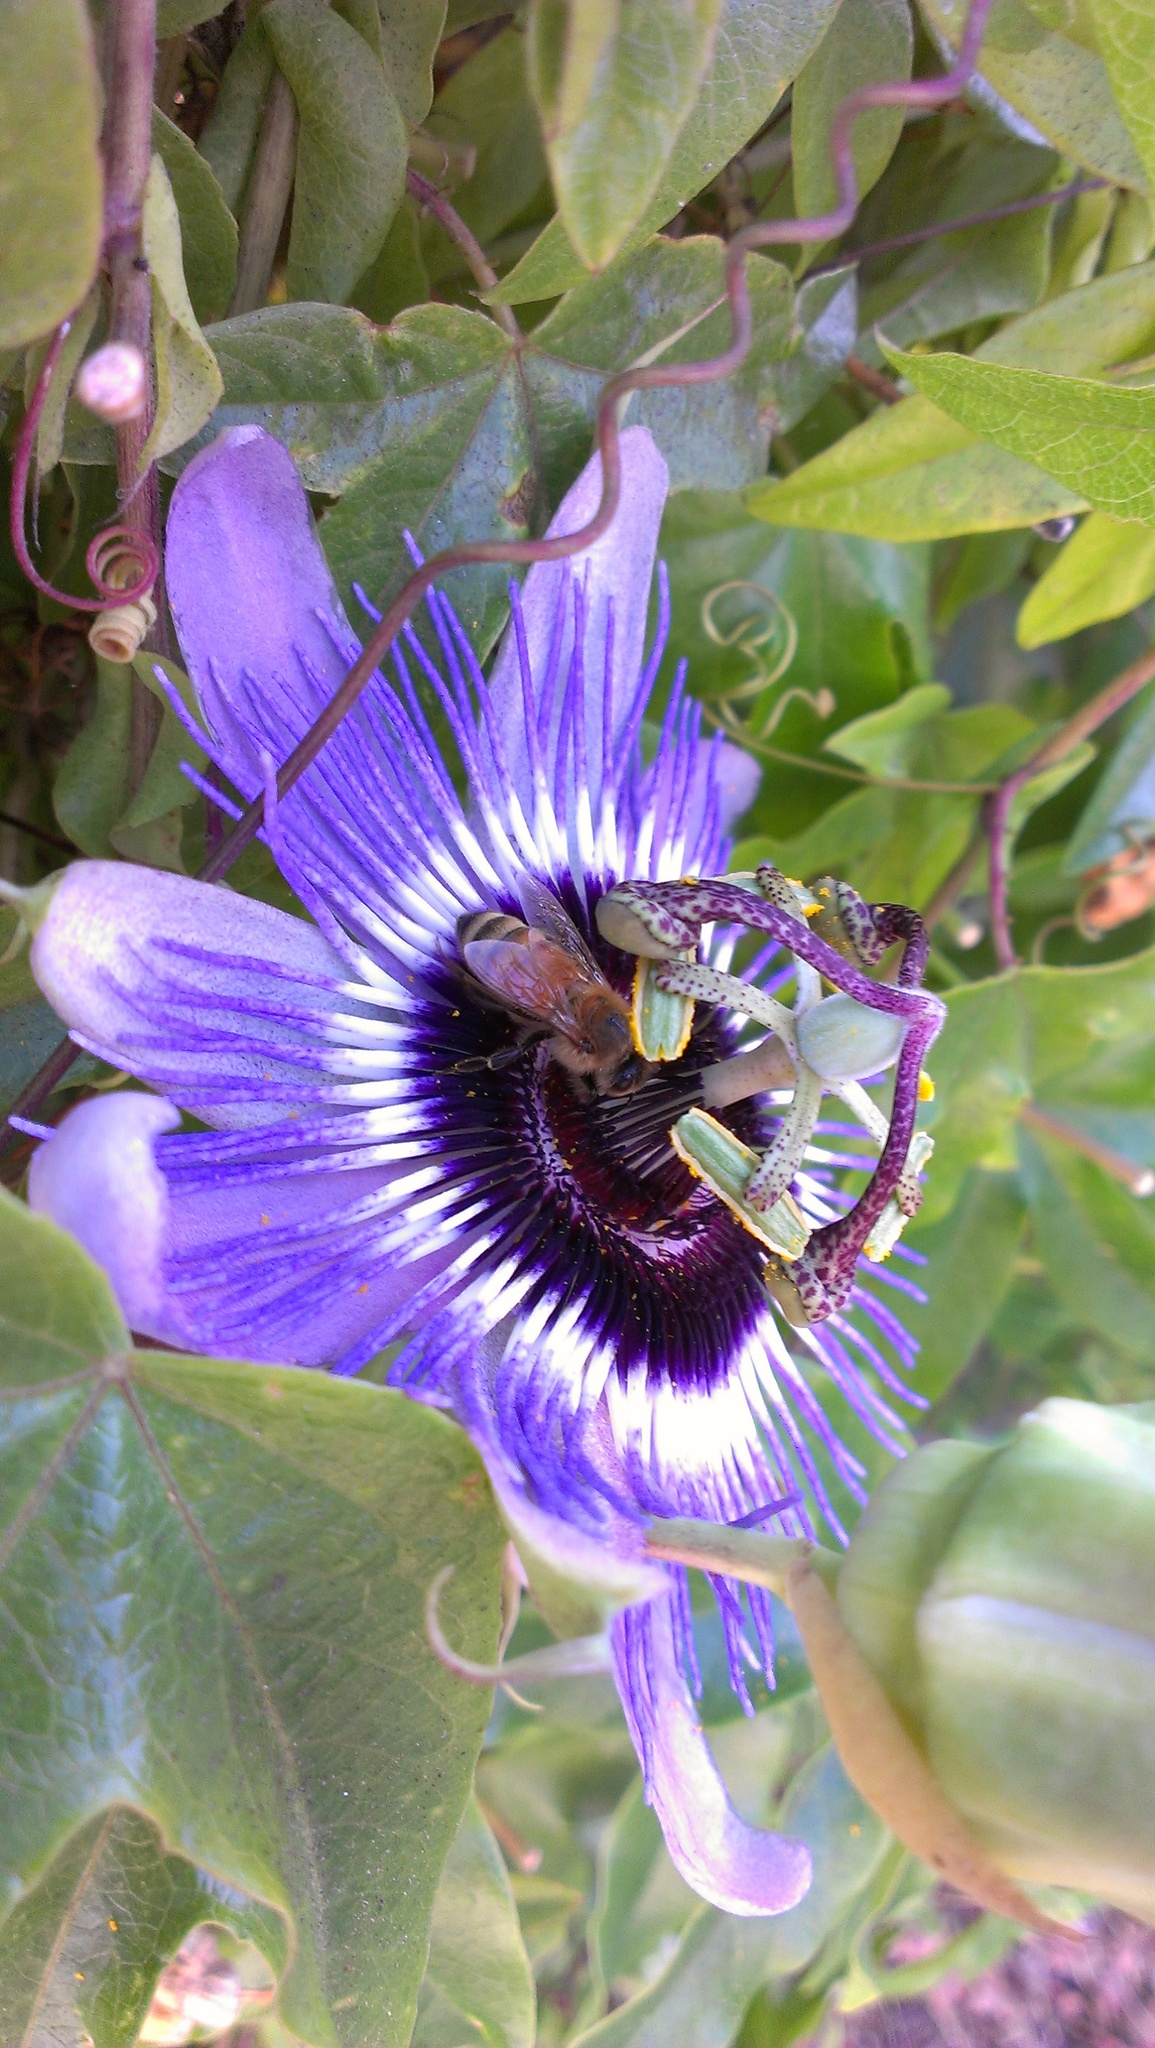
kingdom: Animalia
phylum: Arthropoda
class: Insecta
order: Hymenoptera
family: Apidae
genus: Apis
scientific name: Apis mellifera
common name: Honey bee
